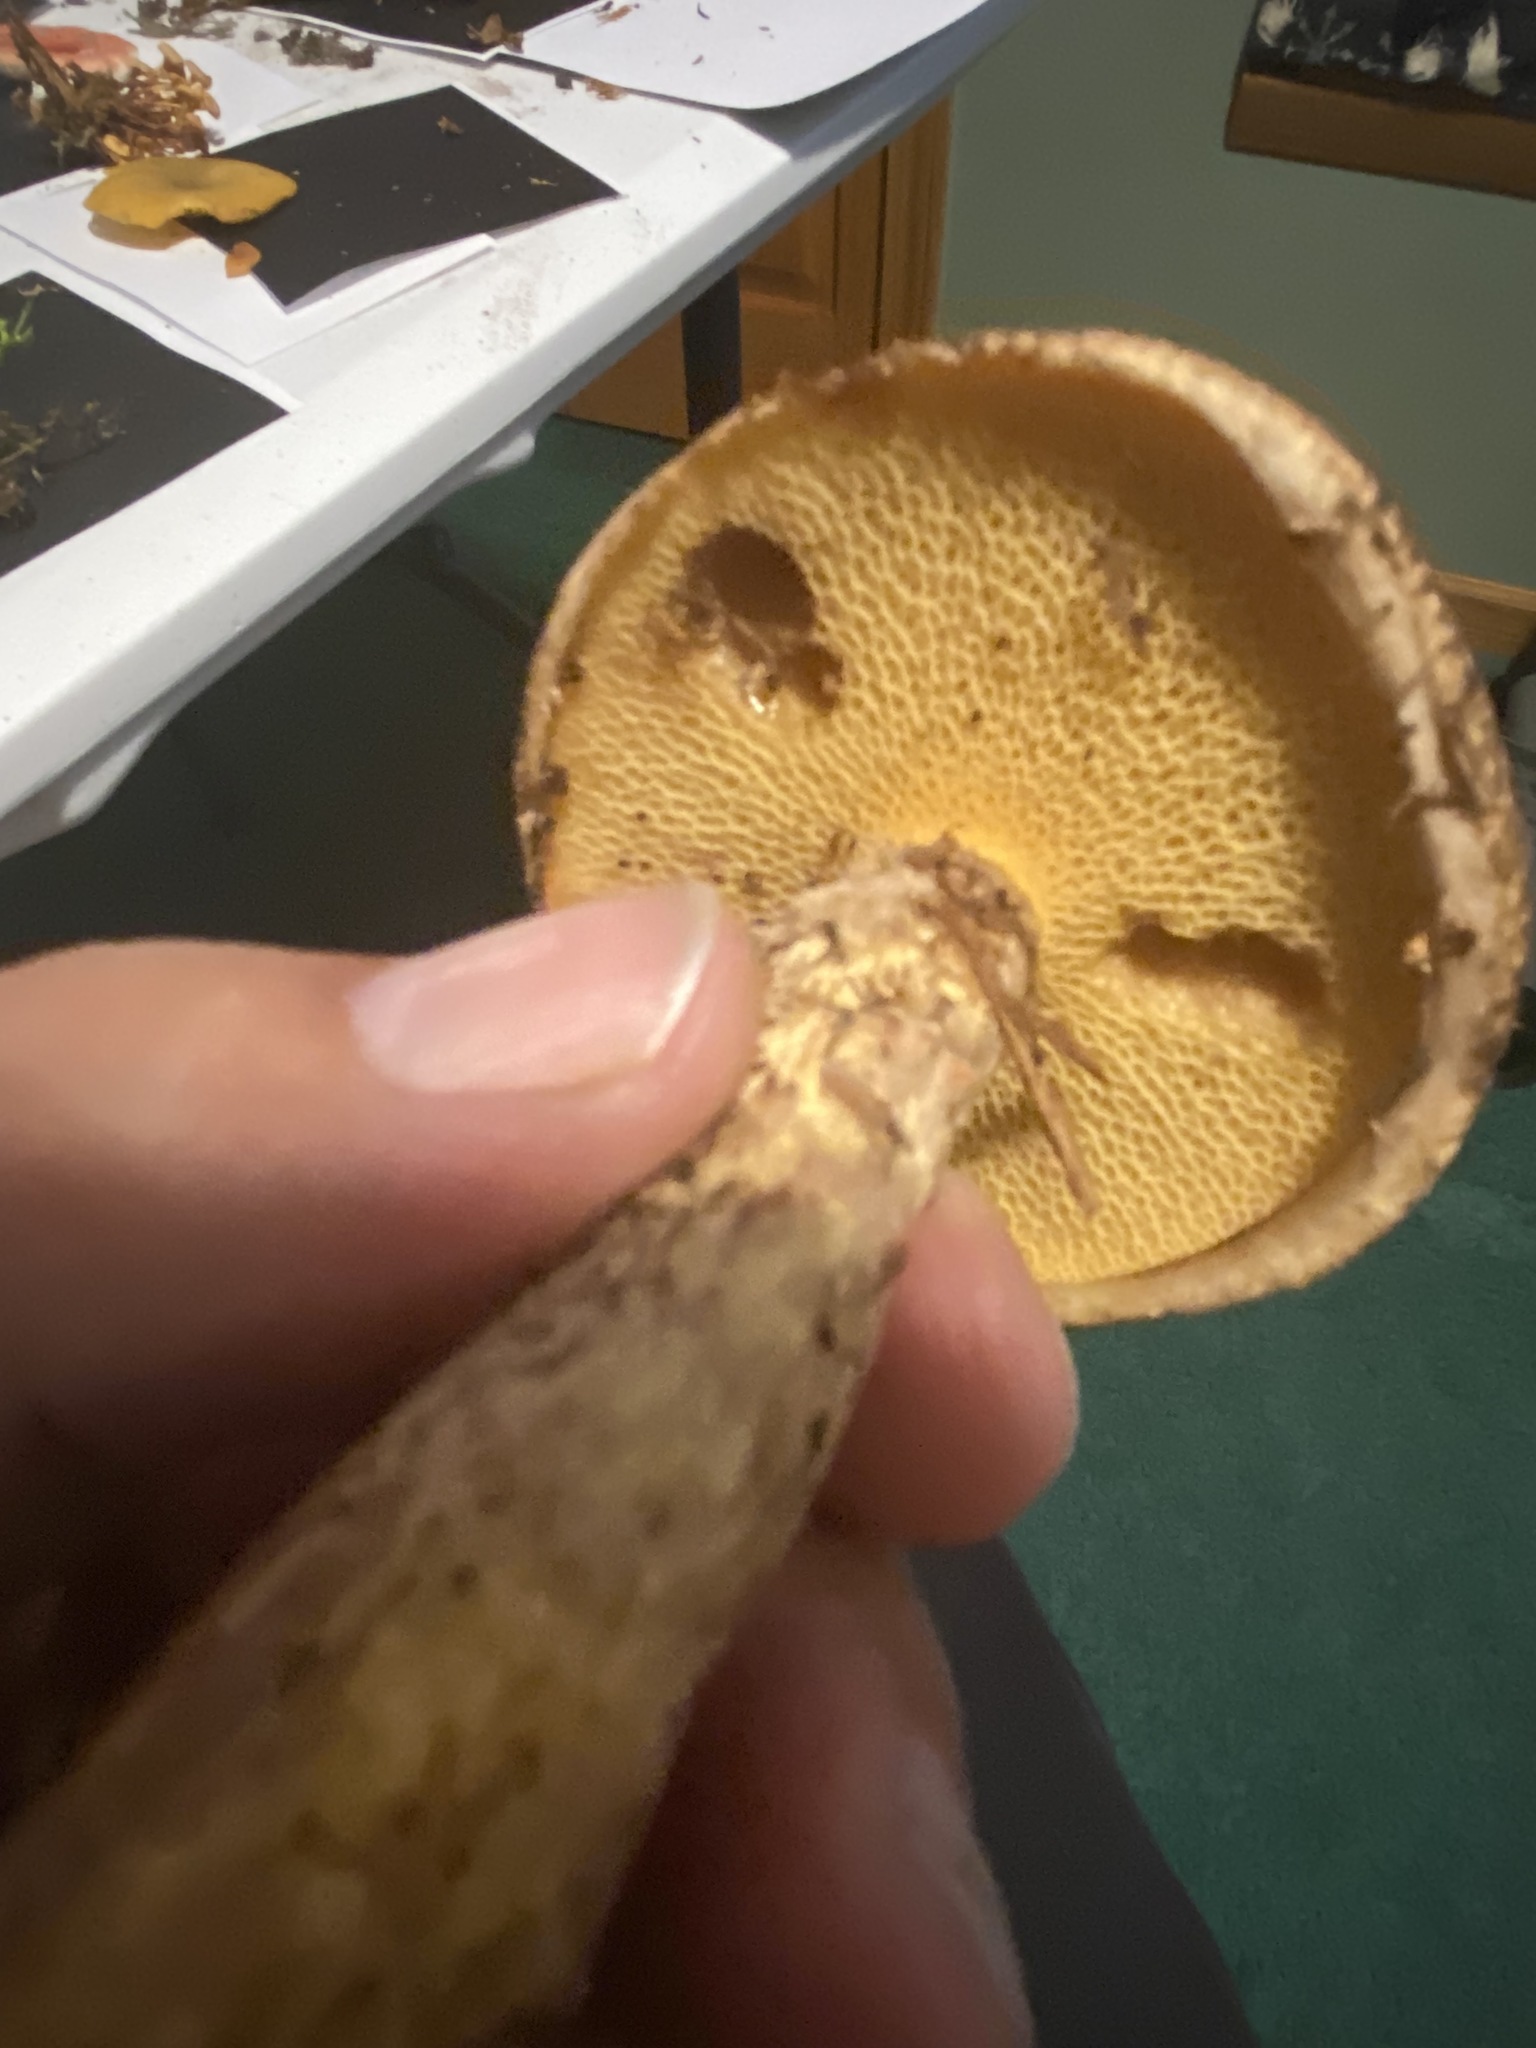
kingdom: Fungi
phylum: Basidiomycota
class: Agaricomycetes
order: Boletales
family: Suillaceae
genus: Suillus
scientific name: Suillus spraguei
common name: Painted suillus
